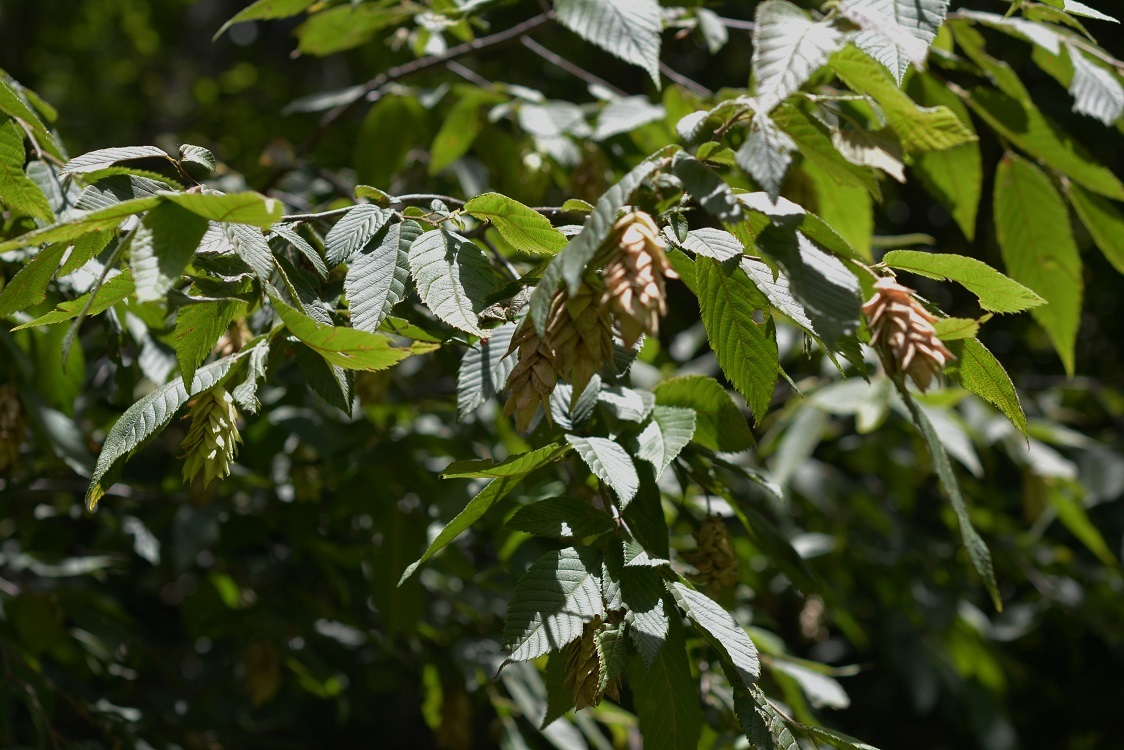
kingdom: Plantae
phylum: Tracheophyta
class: Magnoliopsida
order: Fagales
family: Betulaceae
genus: Ostrya
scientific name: Ostrya virginiana
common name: Ironwood
